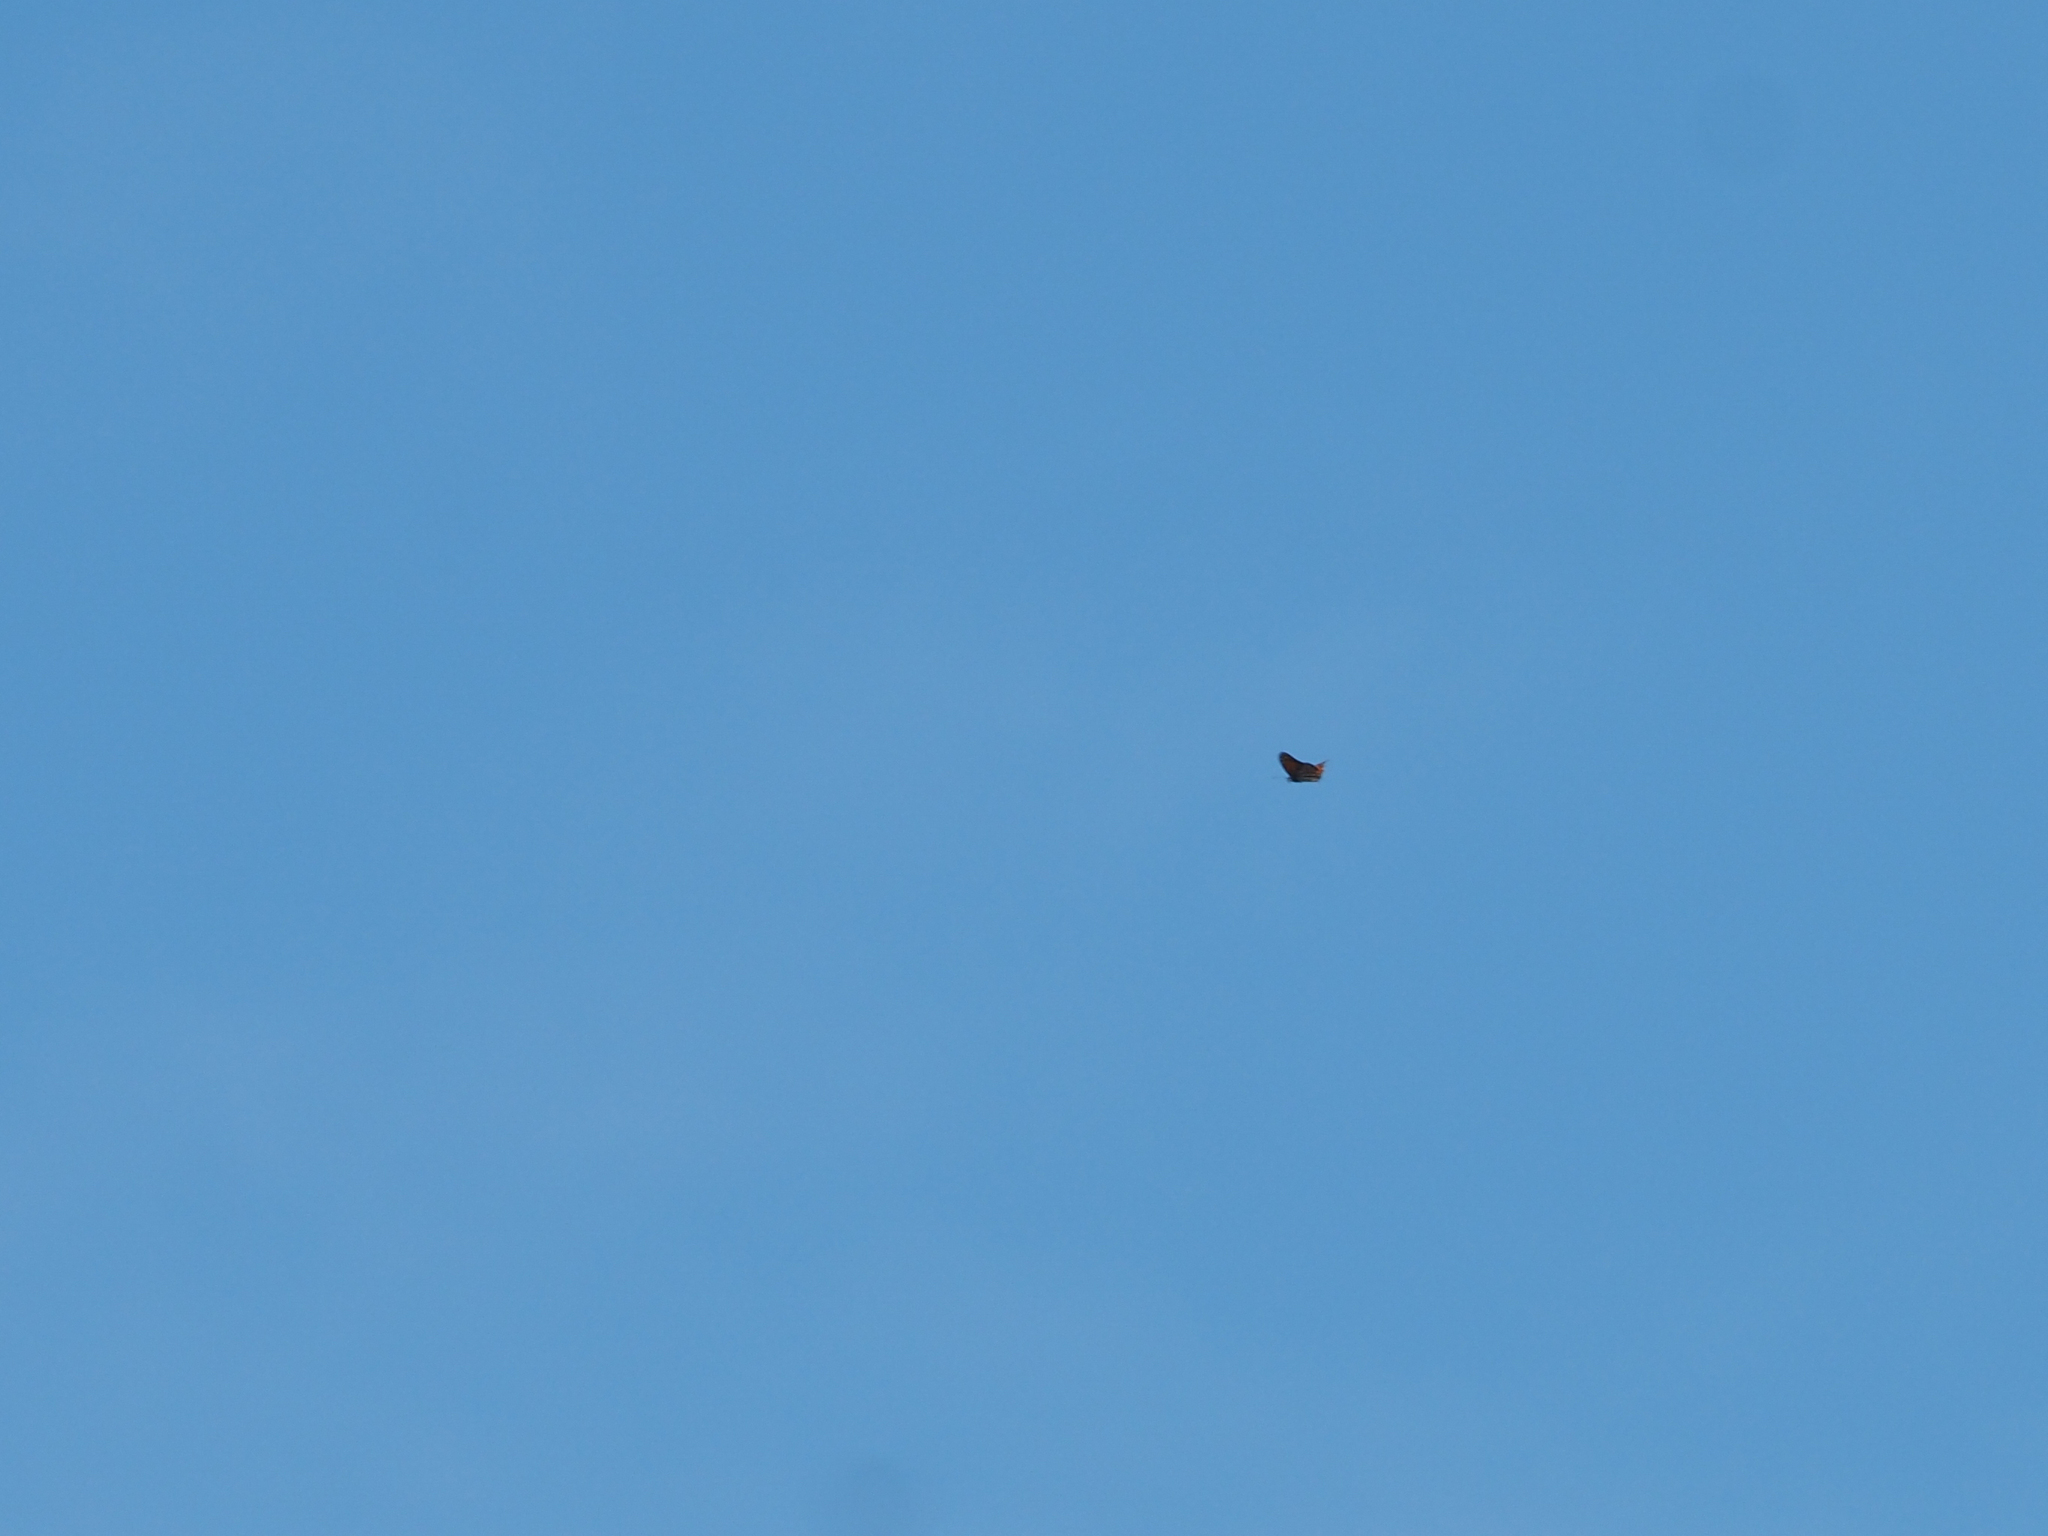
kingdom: Animalia
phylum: Arthropoda
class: Insecta
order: Lepidoptera
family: Nymphalidae
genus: Danaus
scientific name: Danaus plexippus
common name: Monarch
